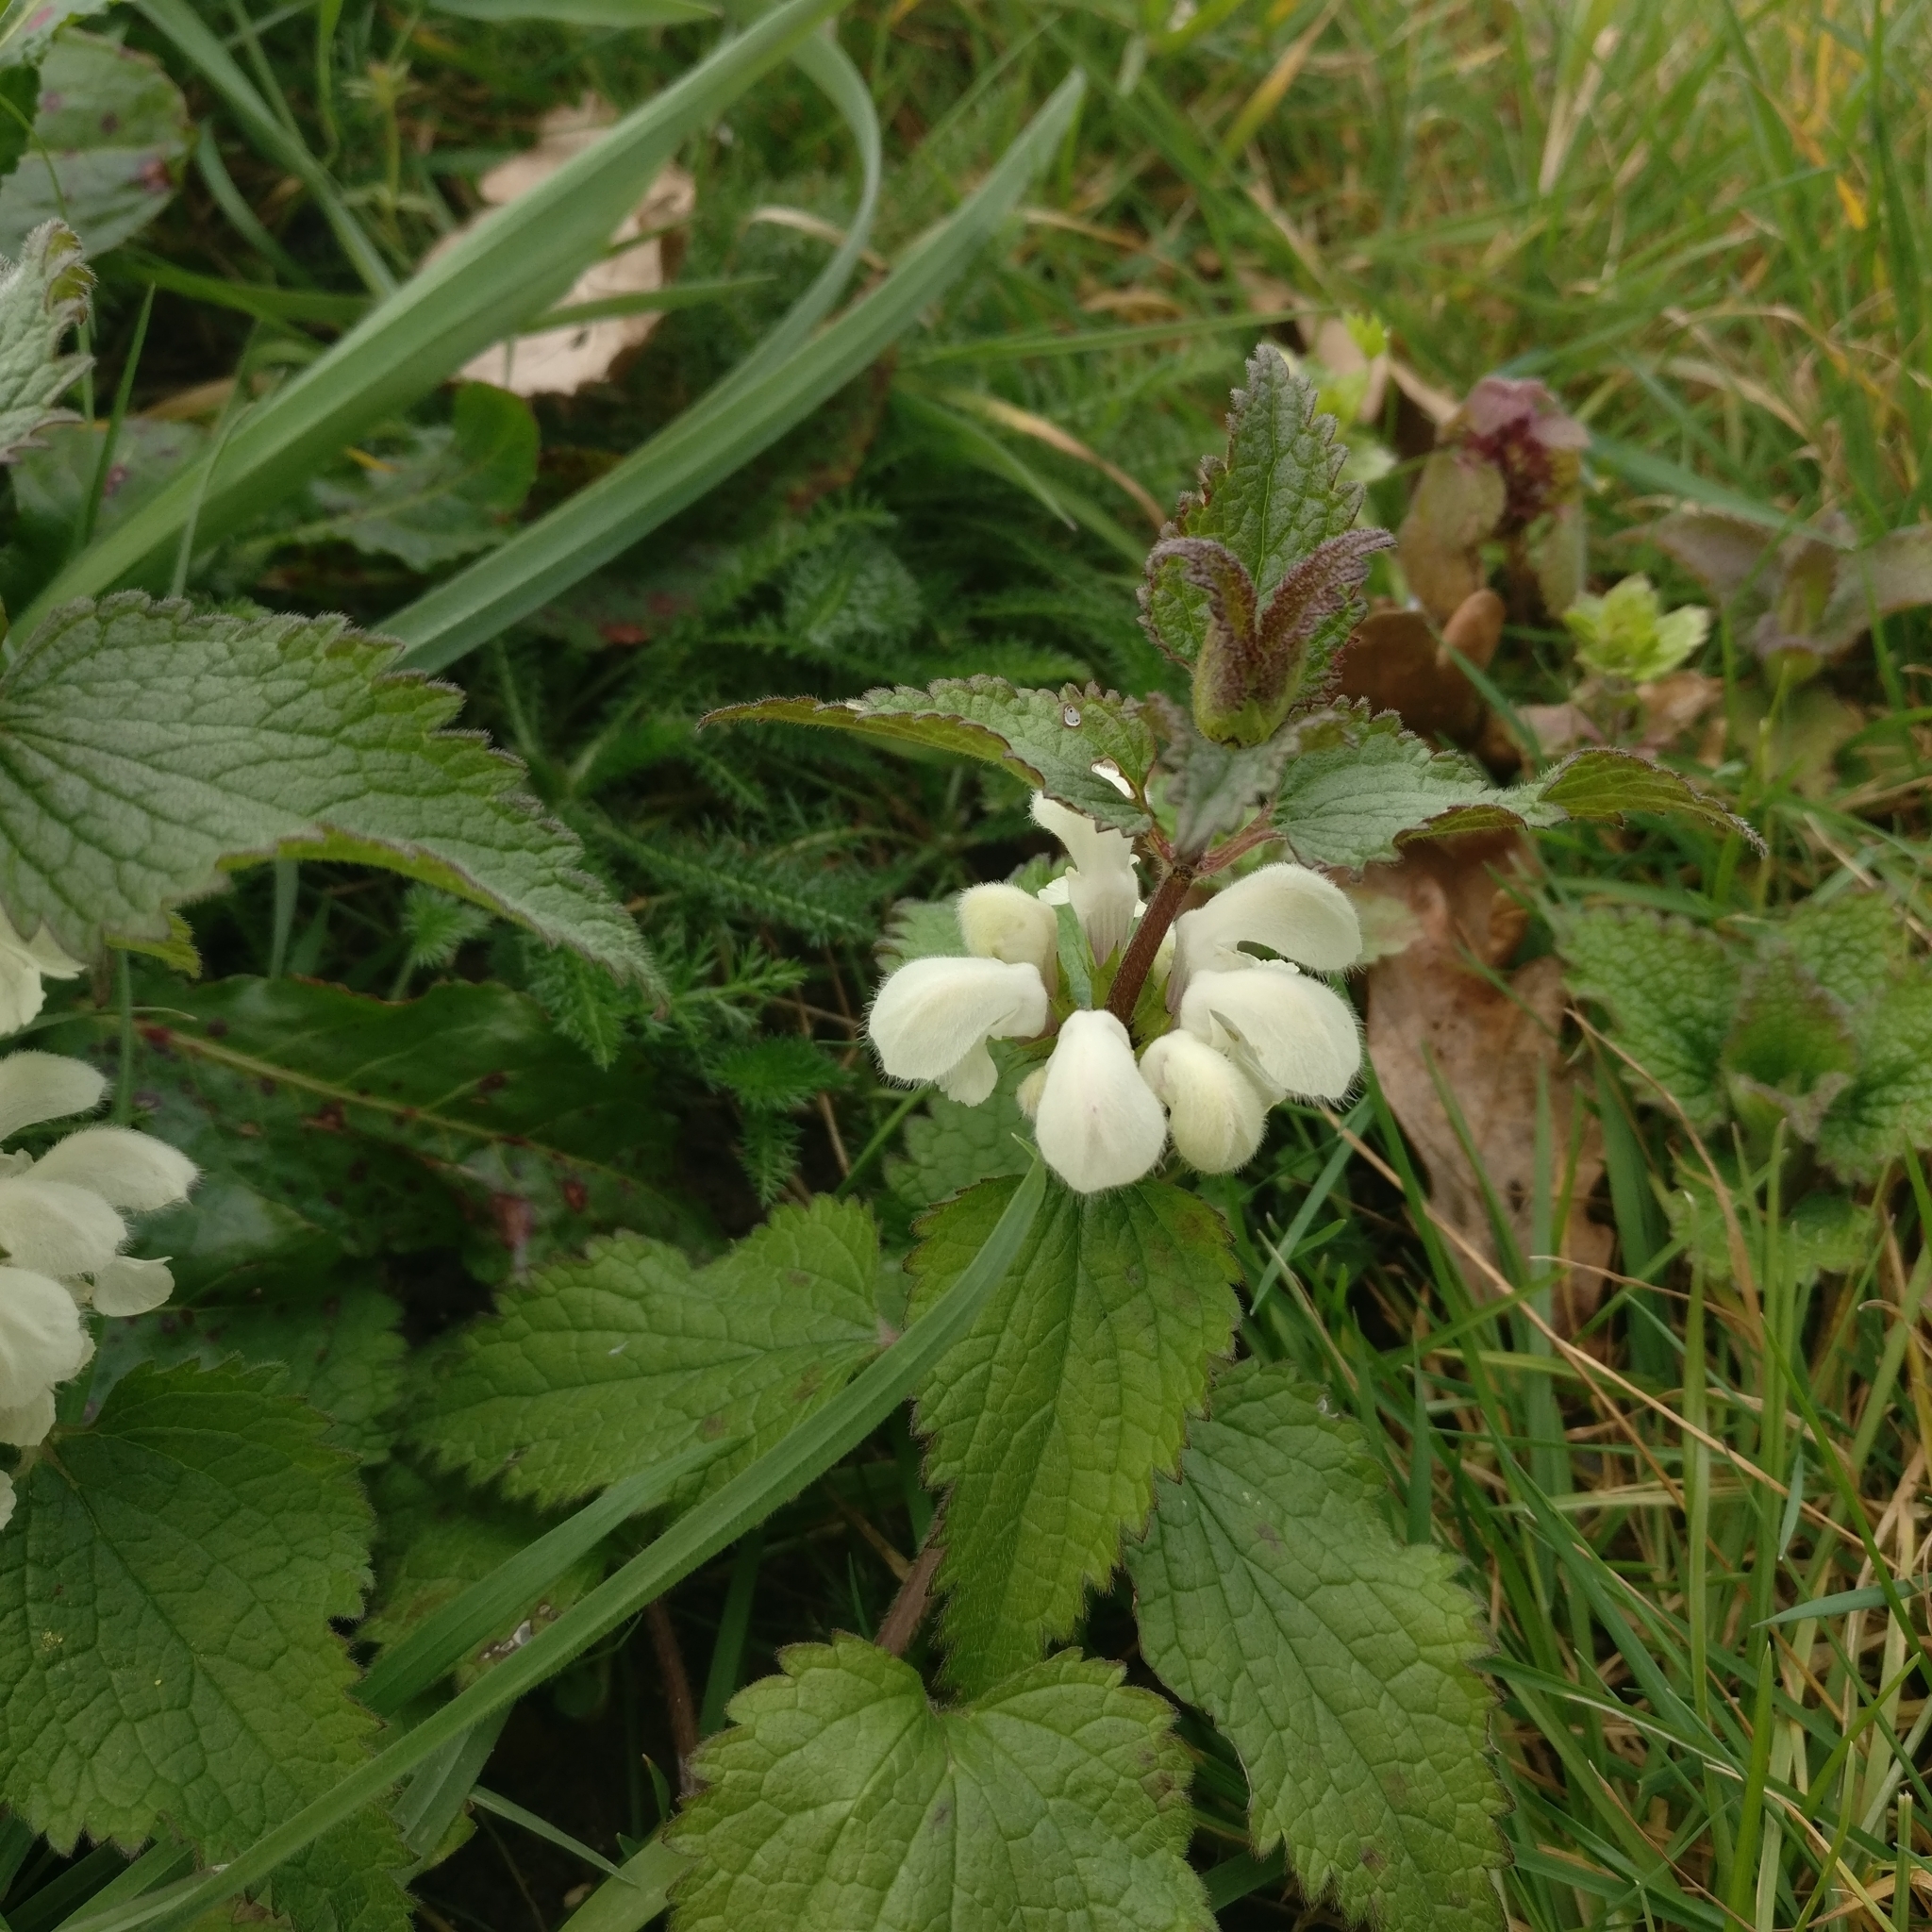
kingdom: Plantae
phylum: Tracheophyta
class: Magnoliopsida
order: Lamiales
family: Lamiaceae
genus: Lamium
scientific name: Lamium album
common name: White dead-nettle
